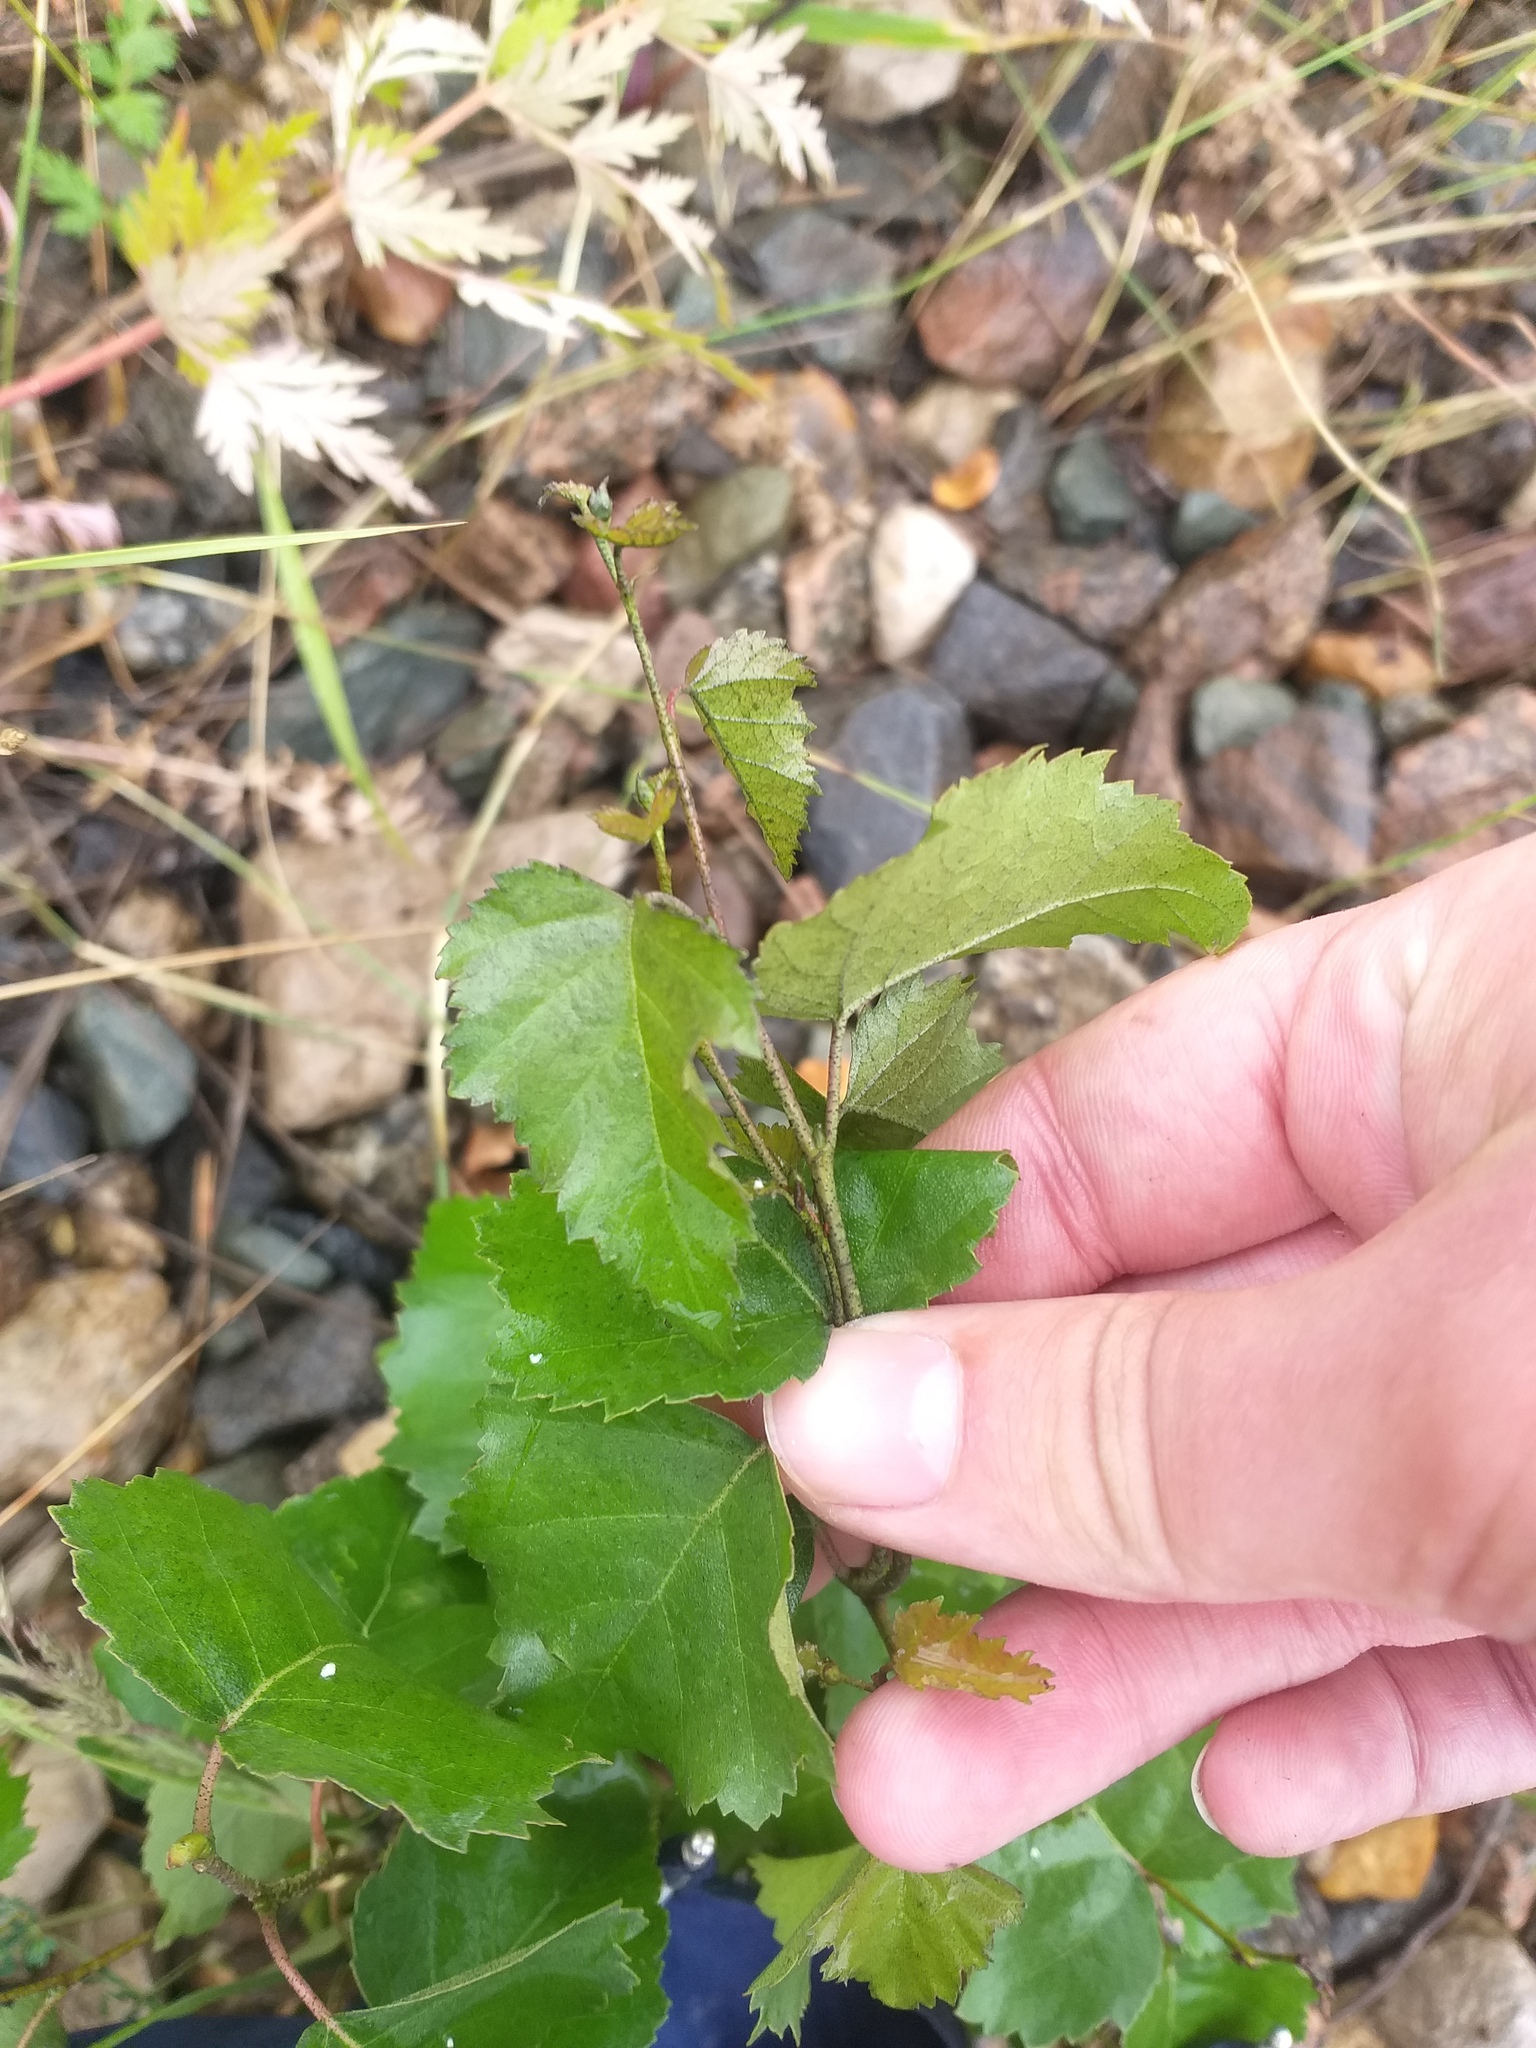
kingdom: Plantae
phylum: Tracheophyta
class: Magnoliopsida
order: Fagales
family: Betulaceae
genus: Betula
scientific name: Betula pendula
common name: Silver birch
